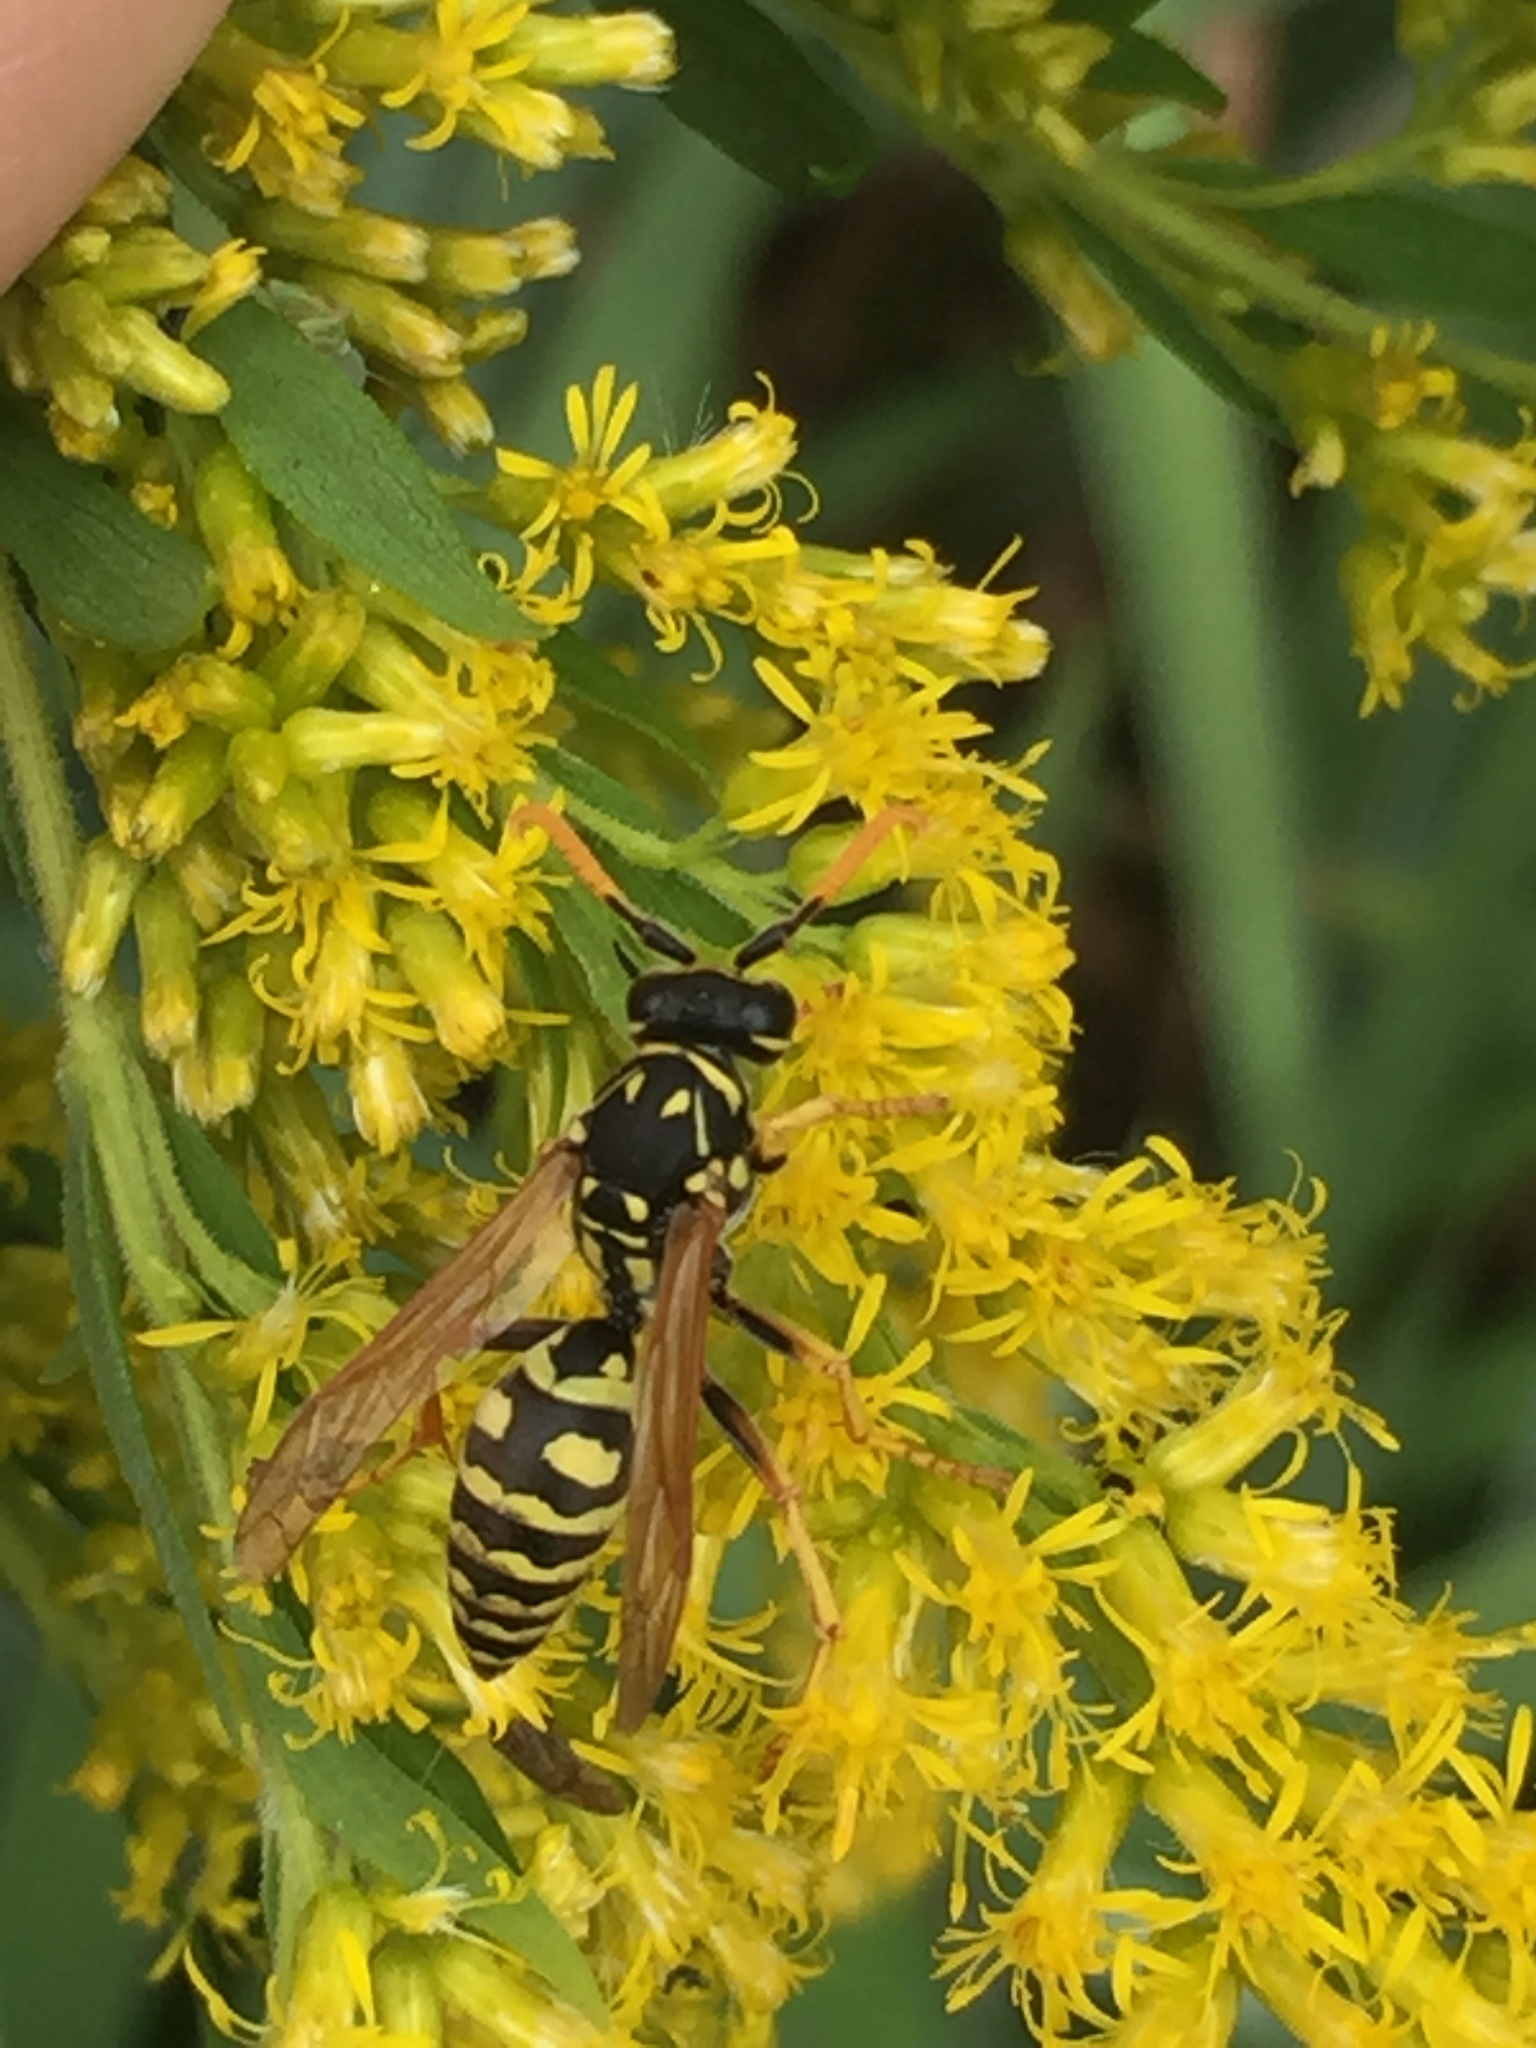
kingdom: Animalia
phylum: Arthropoda
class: Insecta
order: Hymenoptera
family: Eumenidae
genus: Polistes
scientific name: Polistes dominula
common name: Paper wasp
